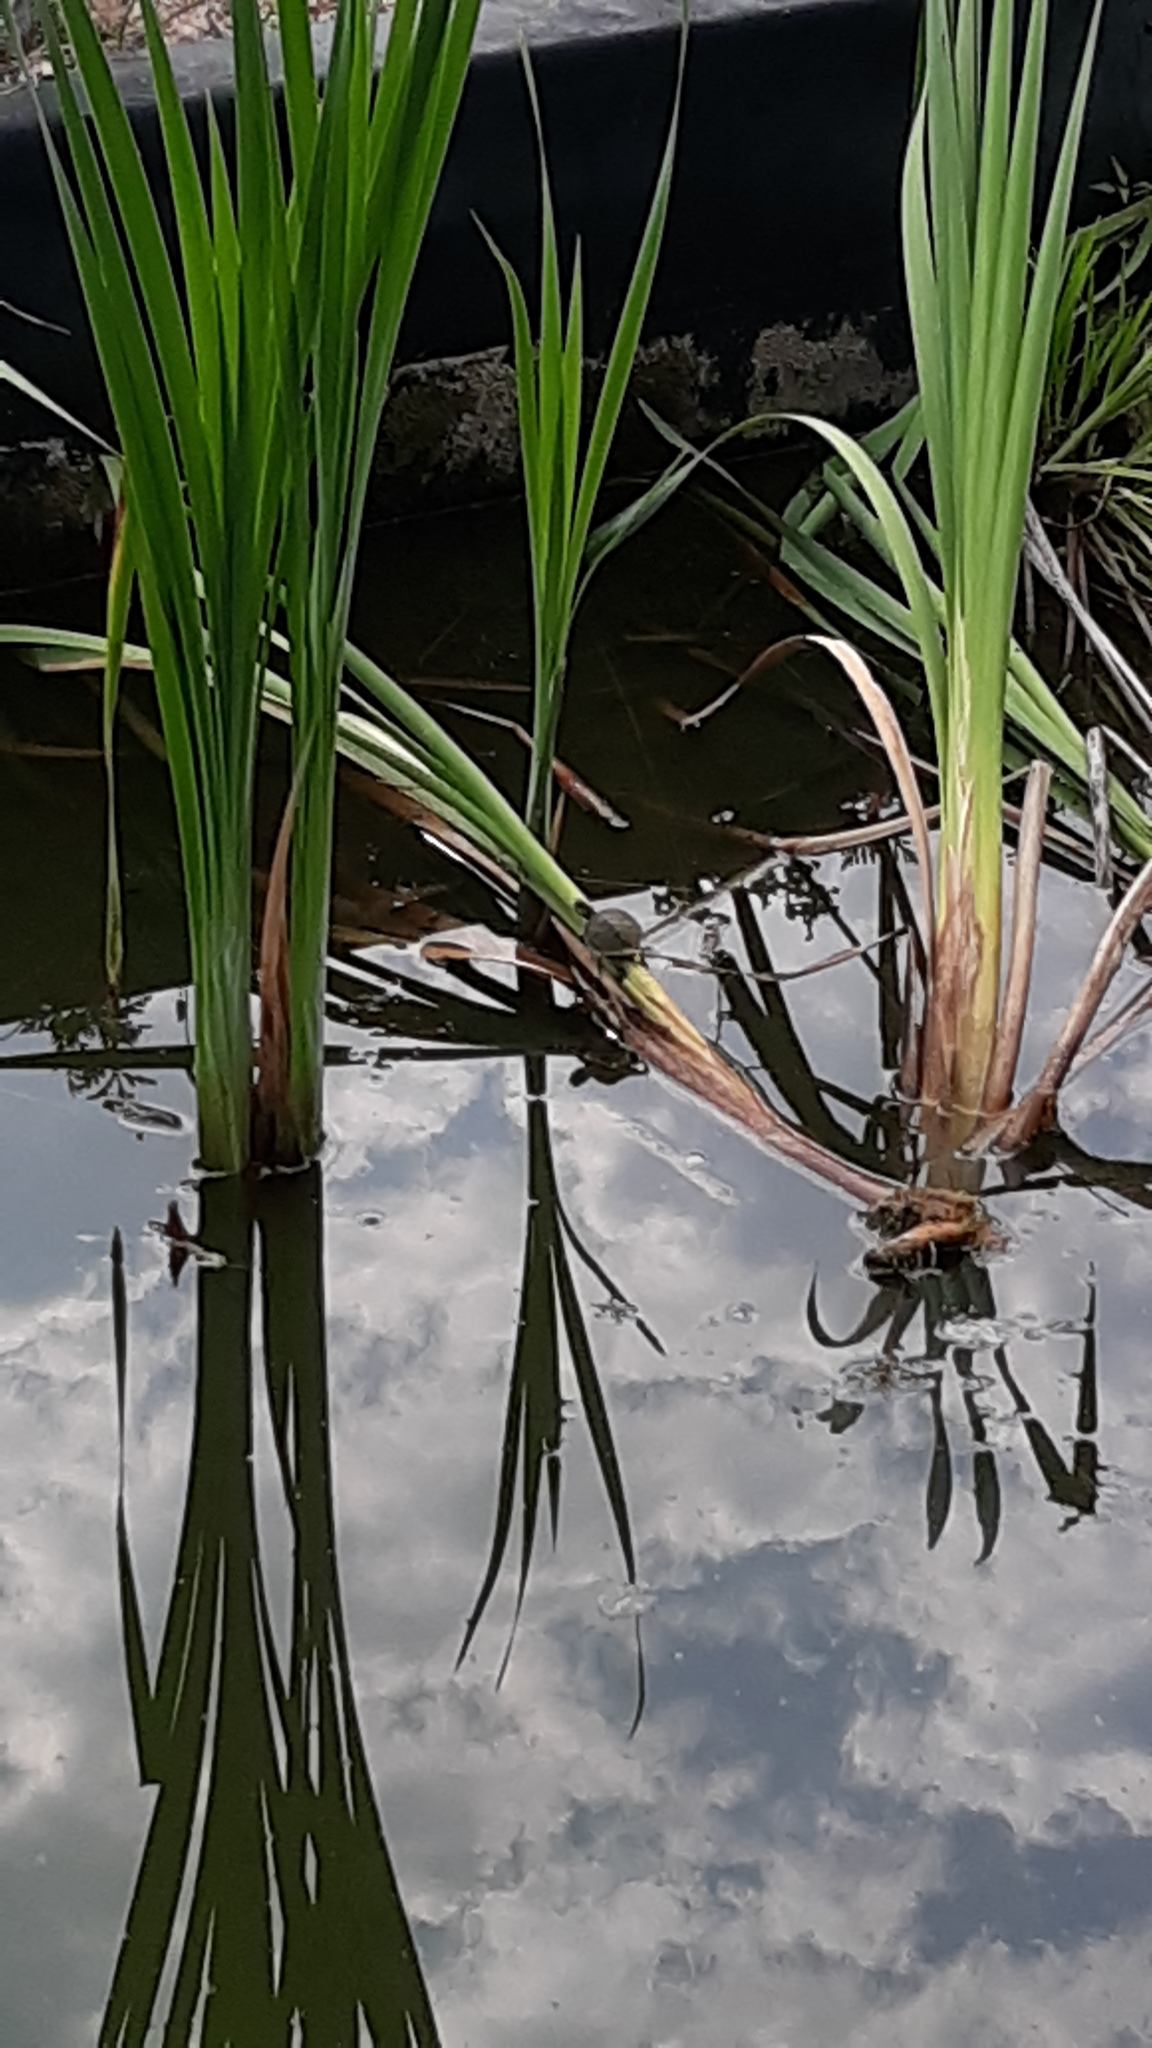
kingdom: Animalia
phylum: Chordata
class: Testudines
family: Emydidae
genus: Trachemys
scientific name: Trachemys scripta
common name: Slider
